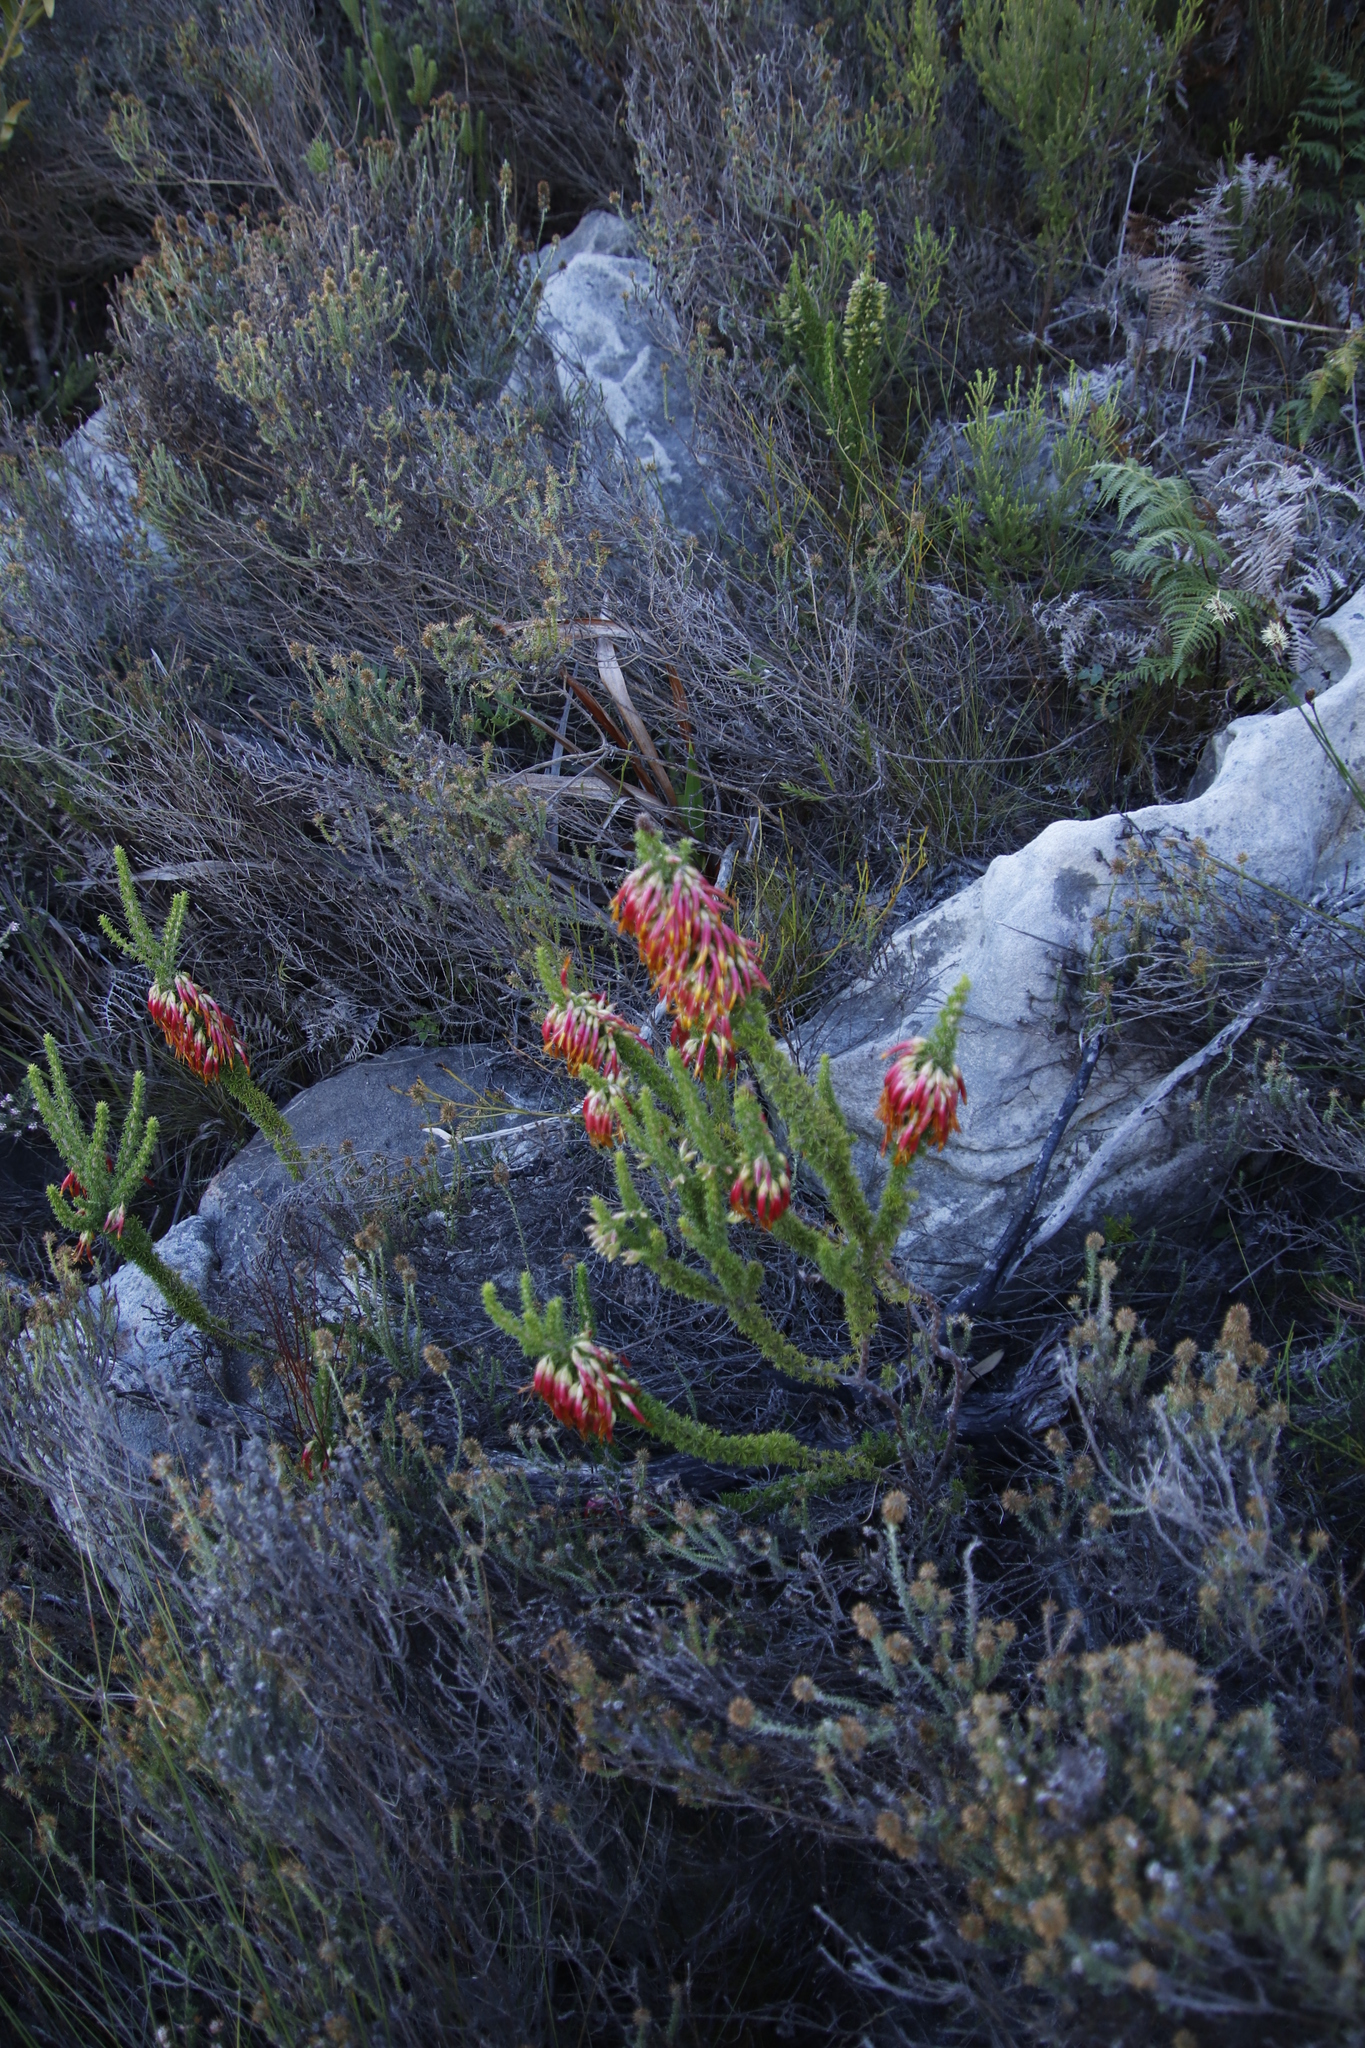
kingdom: Plantae
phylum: Tracheophyta
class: Magnoliopsida
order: Ericales
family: Ericaceae
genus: Erica
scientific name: Erica coccinea
